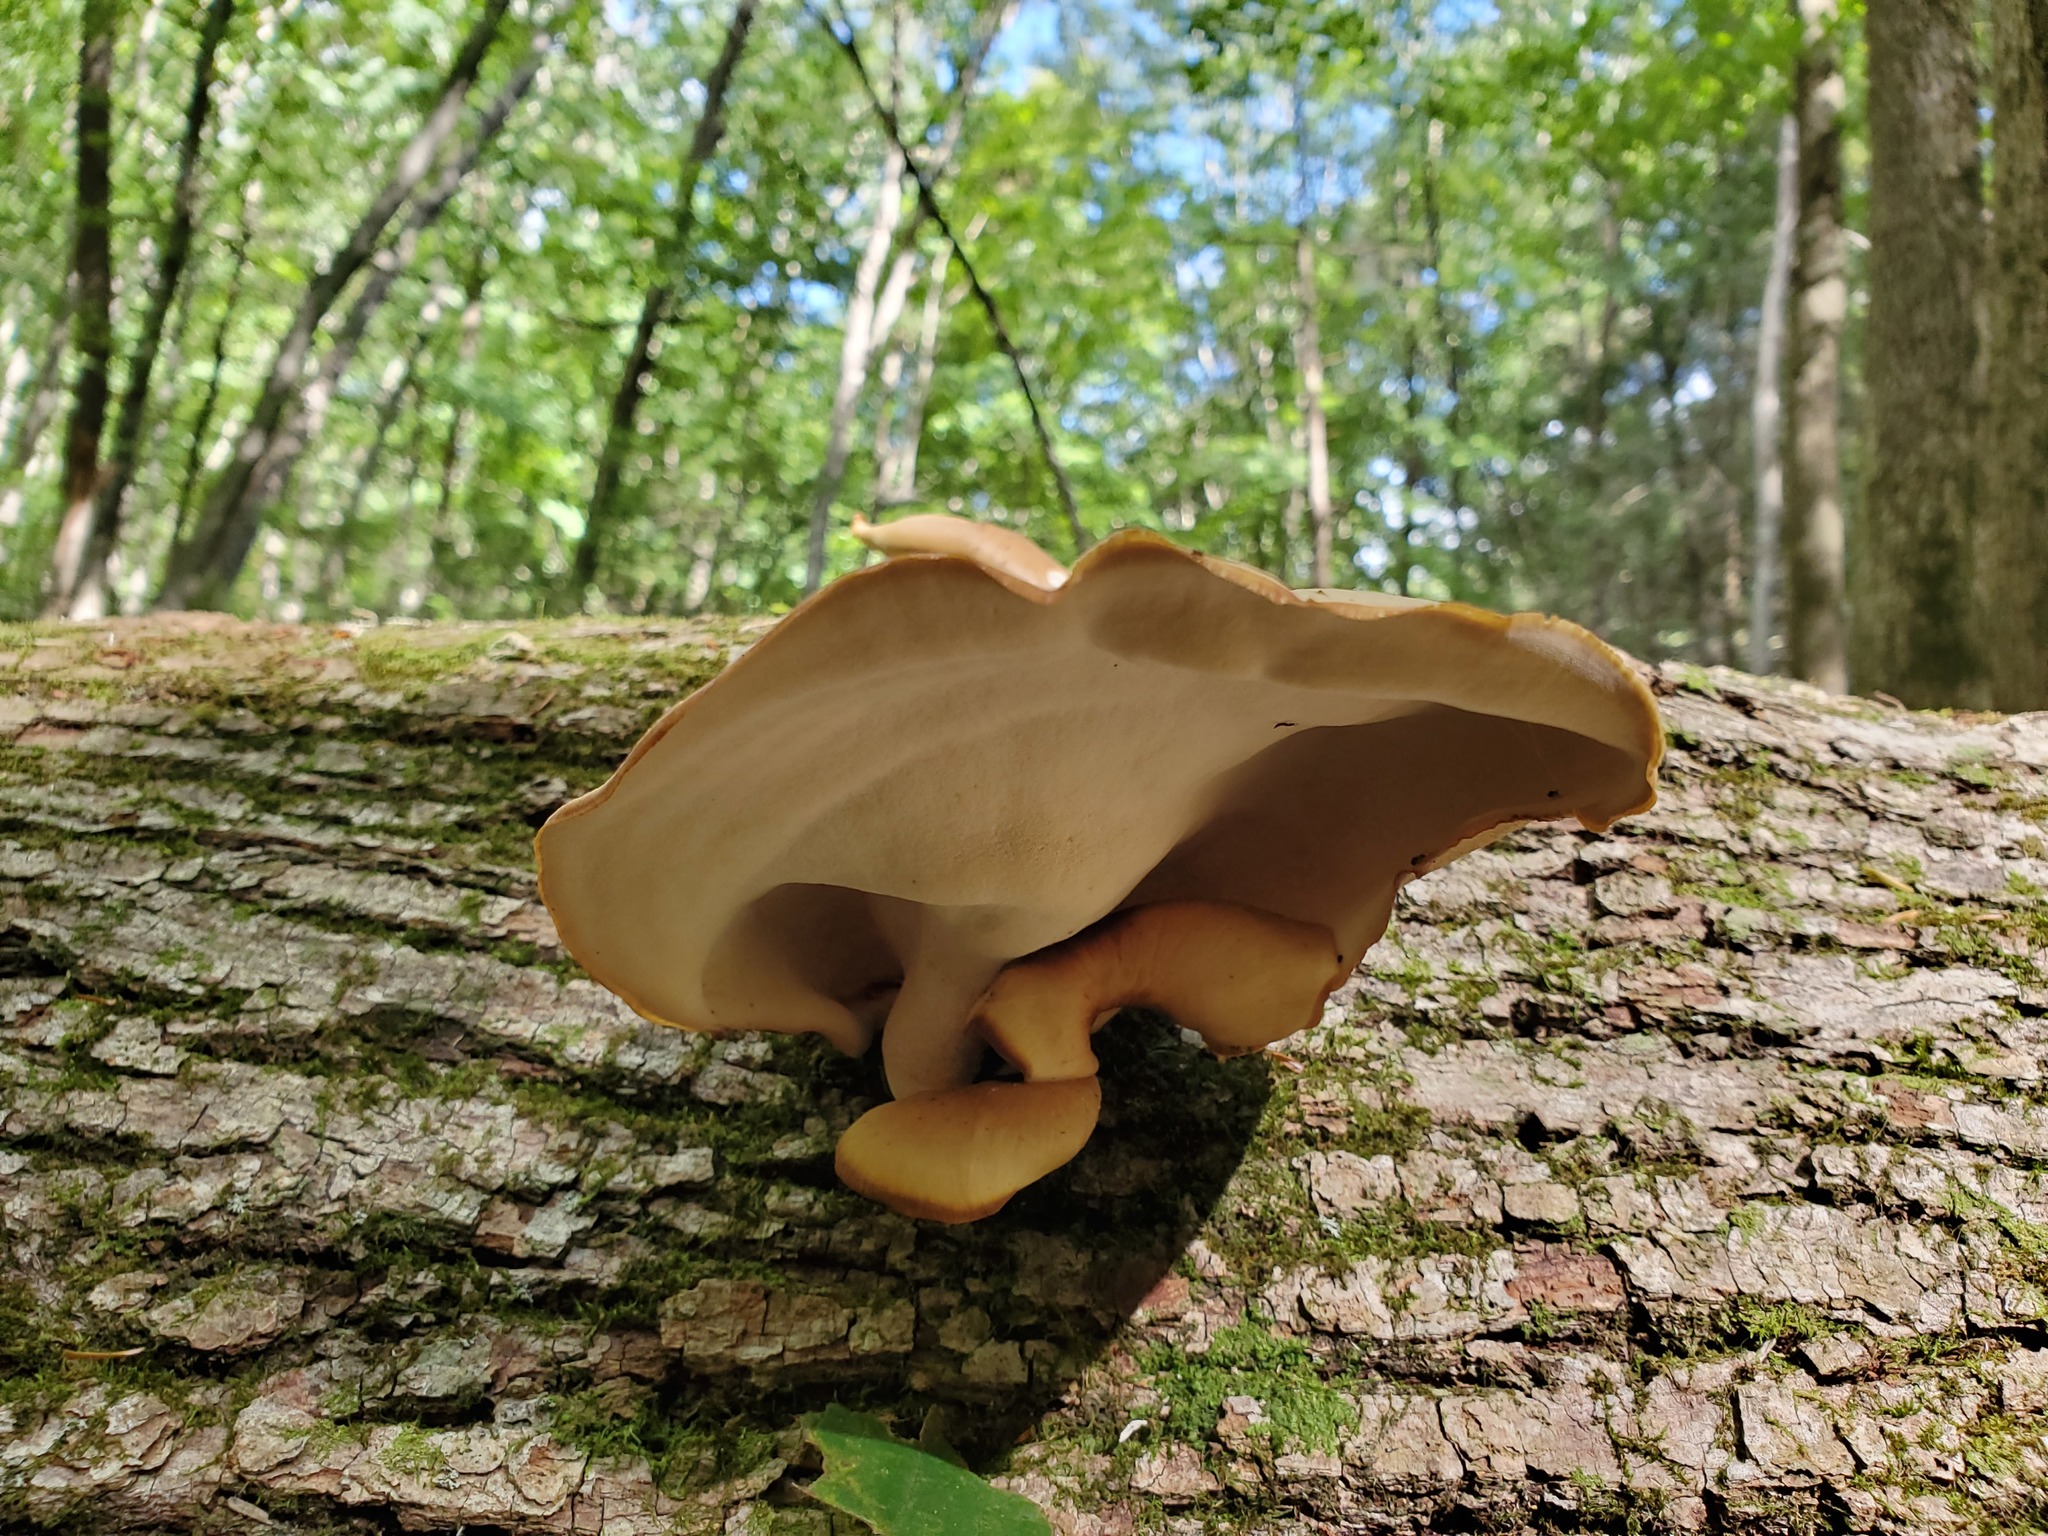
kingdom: Fungi
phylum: Basidiomycota
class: Agaricomycetes
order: Polyporales
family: Polyporaceae
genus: Picipes
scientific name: Picipes badius
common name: Bay polypore
